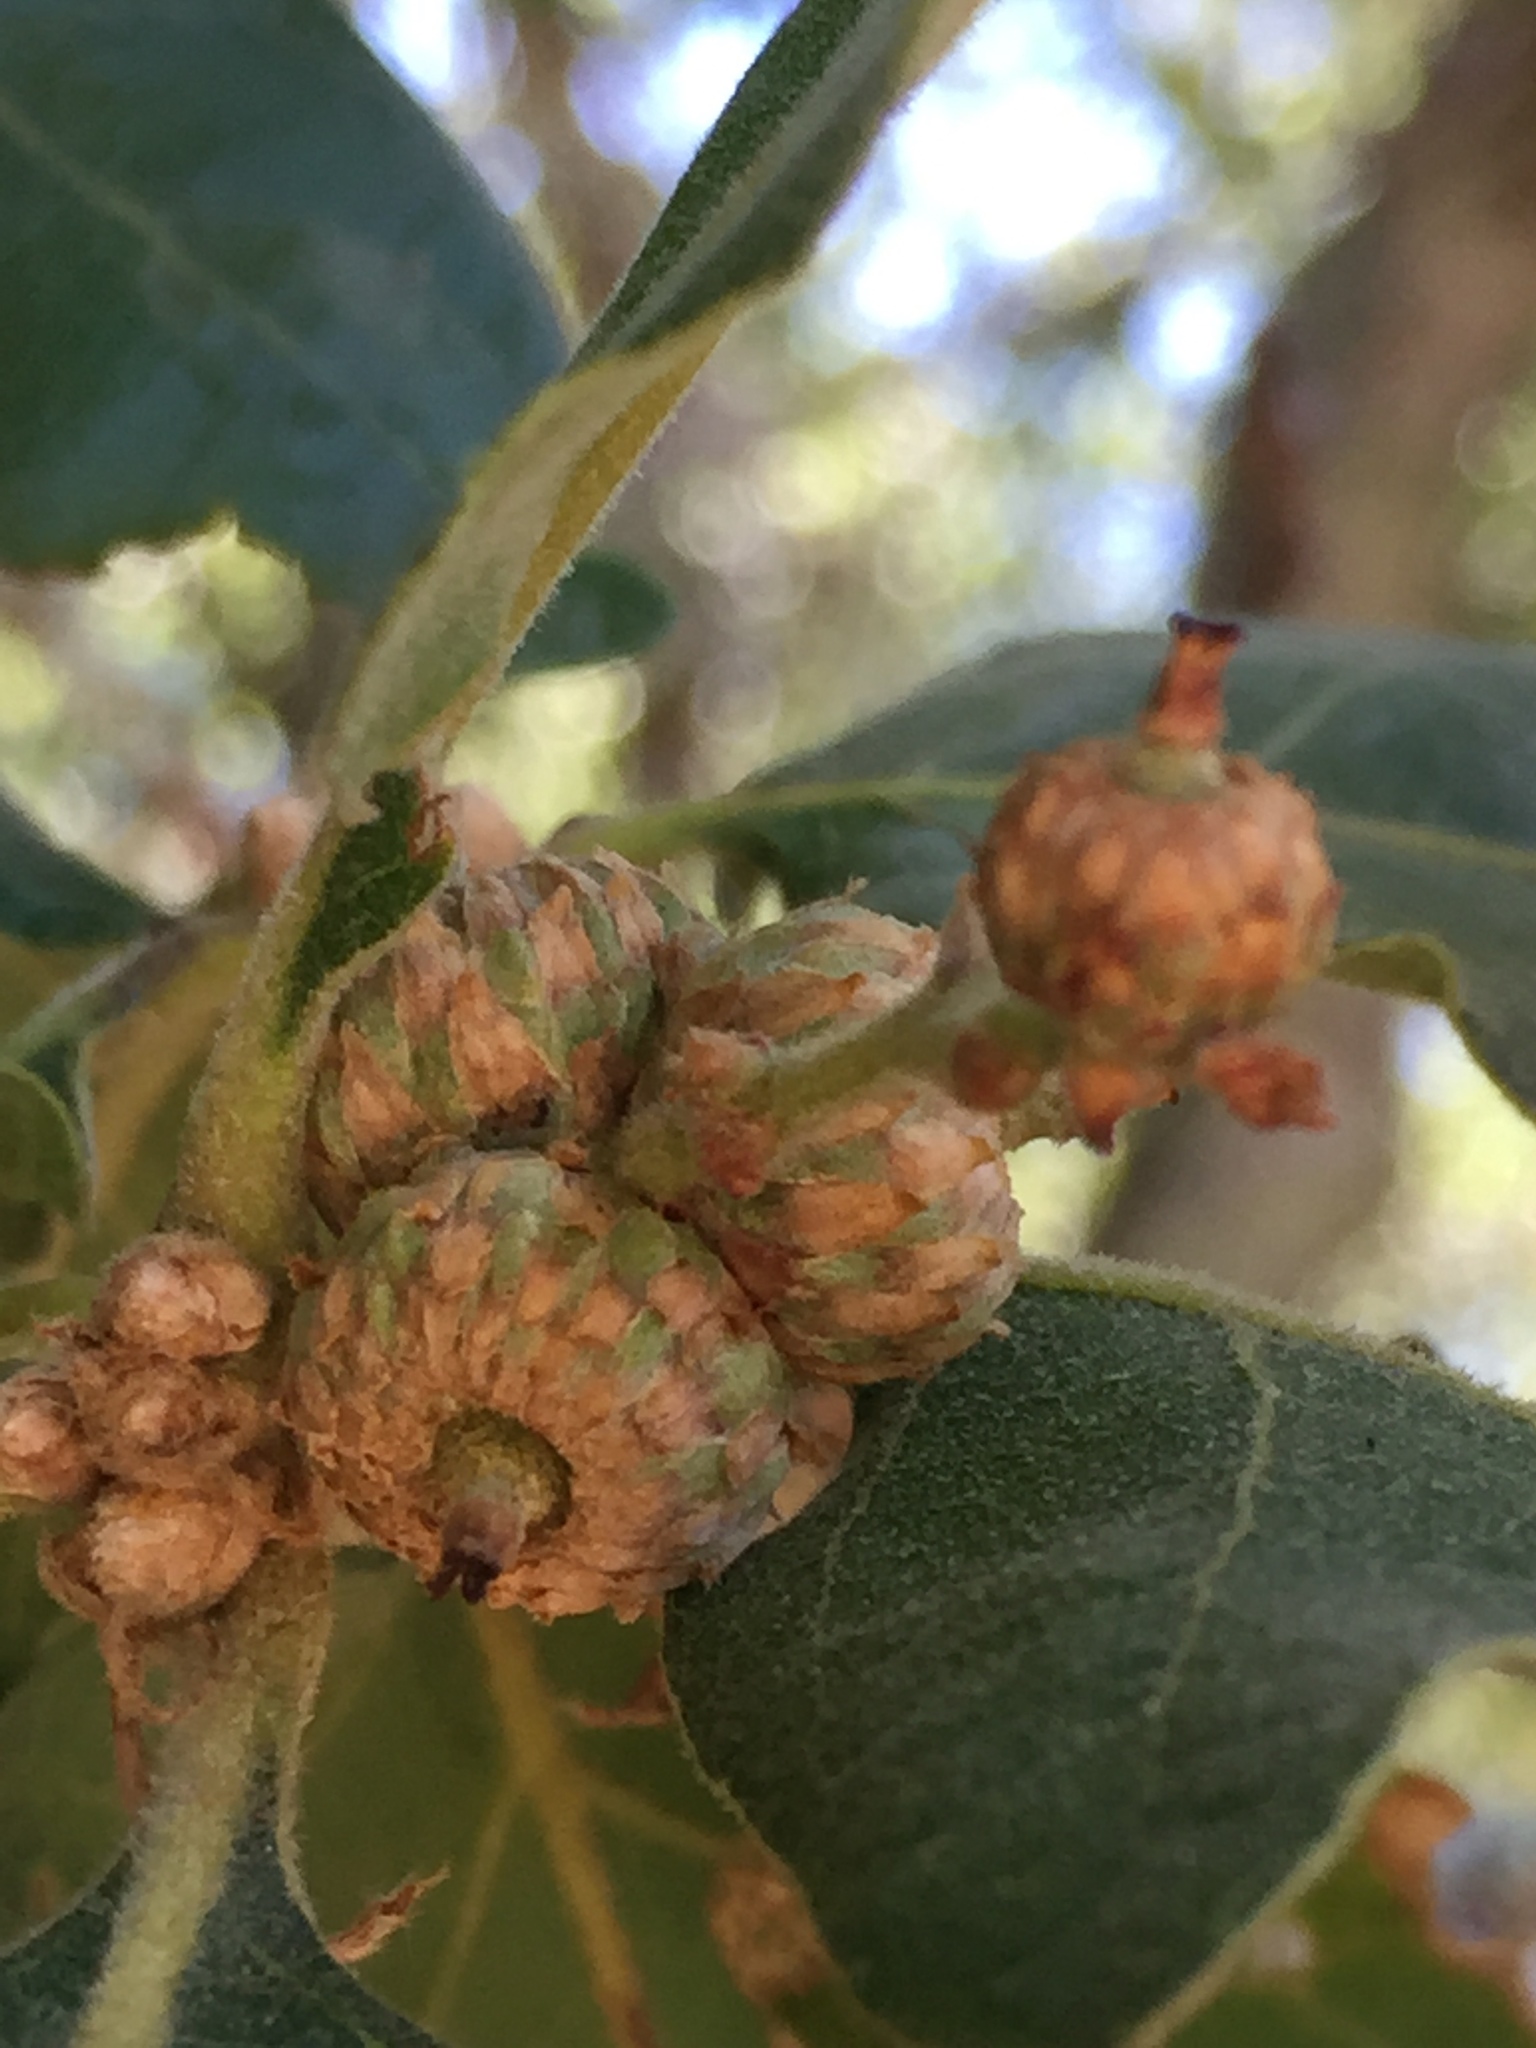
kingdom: Plantae
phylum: Tracheophyta
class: Magnoliopsida
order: Fagales
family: Fagaceae
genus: Quercus
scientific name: Quercus garryana
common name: Garry oak
